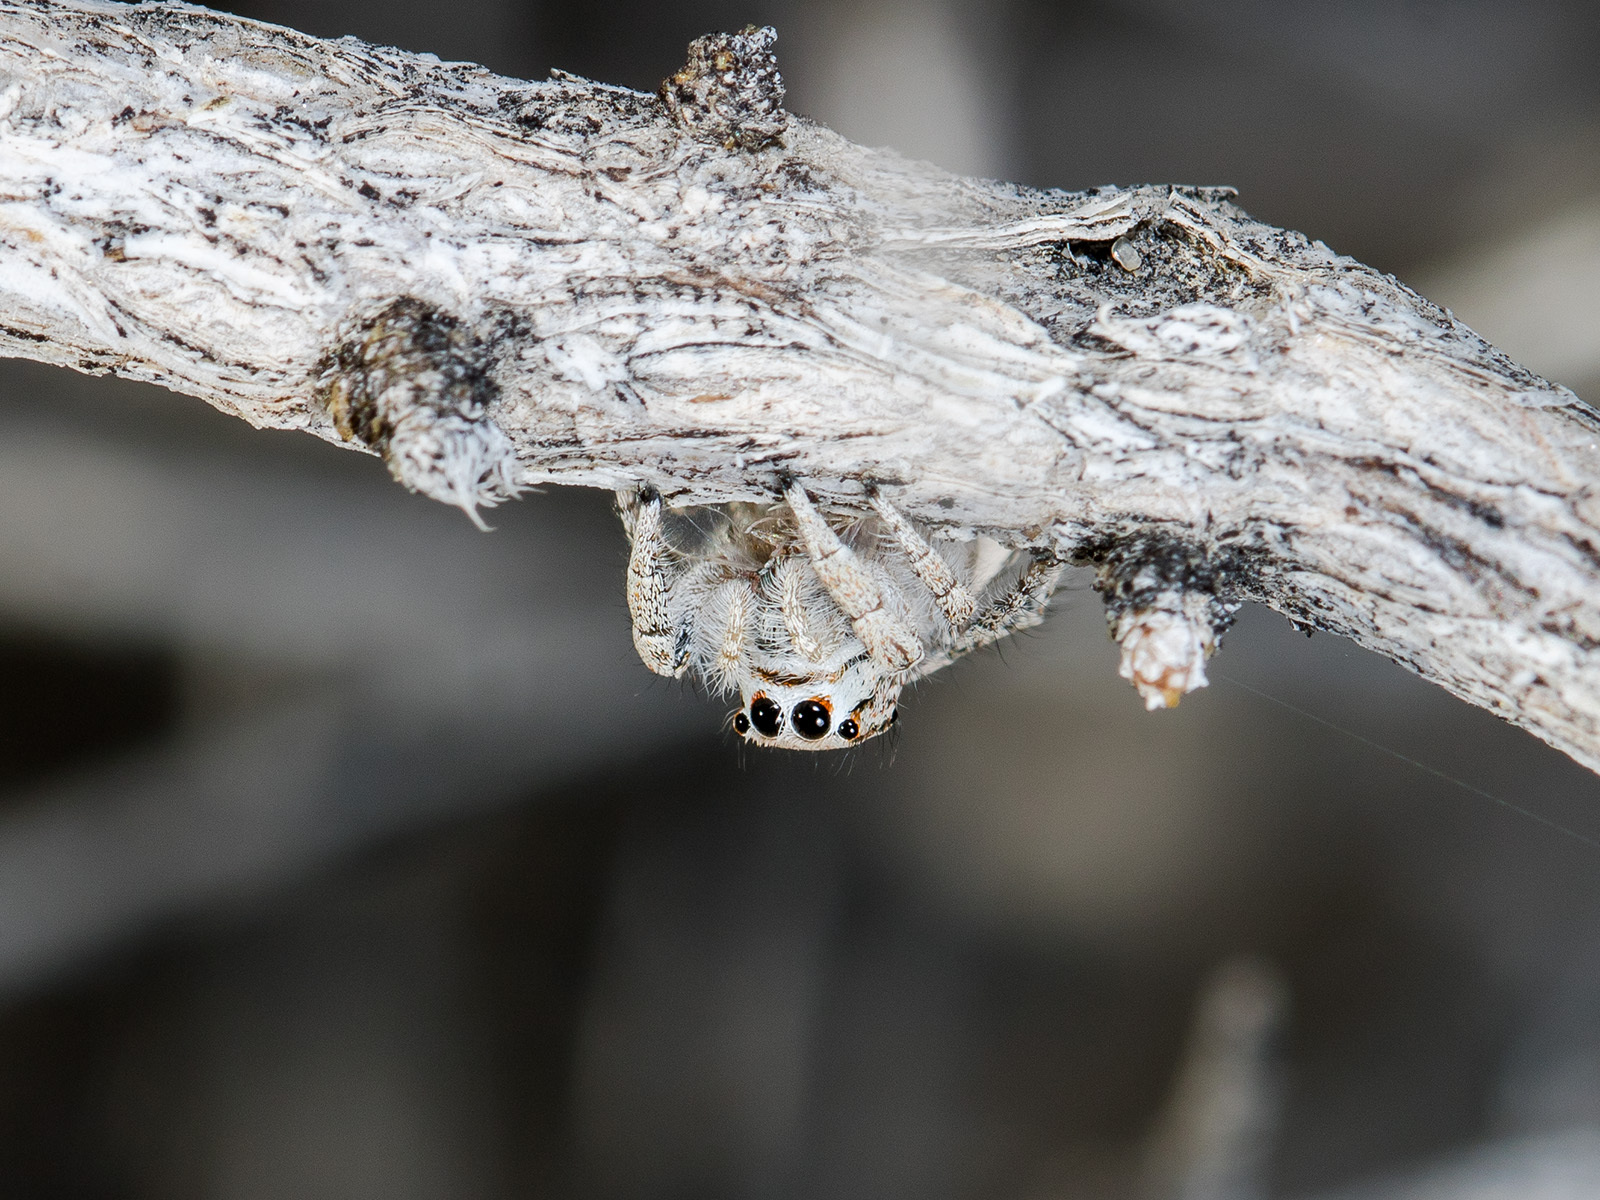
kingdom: Animalia
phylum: Arthropoda
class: Arachnida
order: Araneae
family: Salticidae
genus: Marusyllus
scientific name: Marusyllus aralicus
